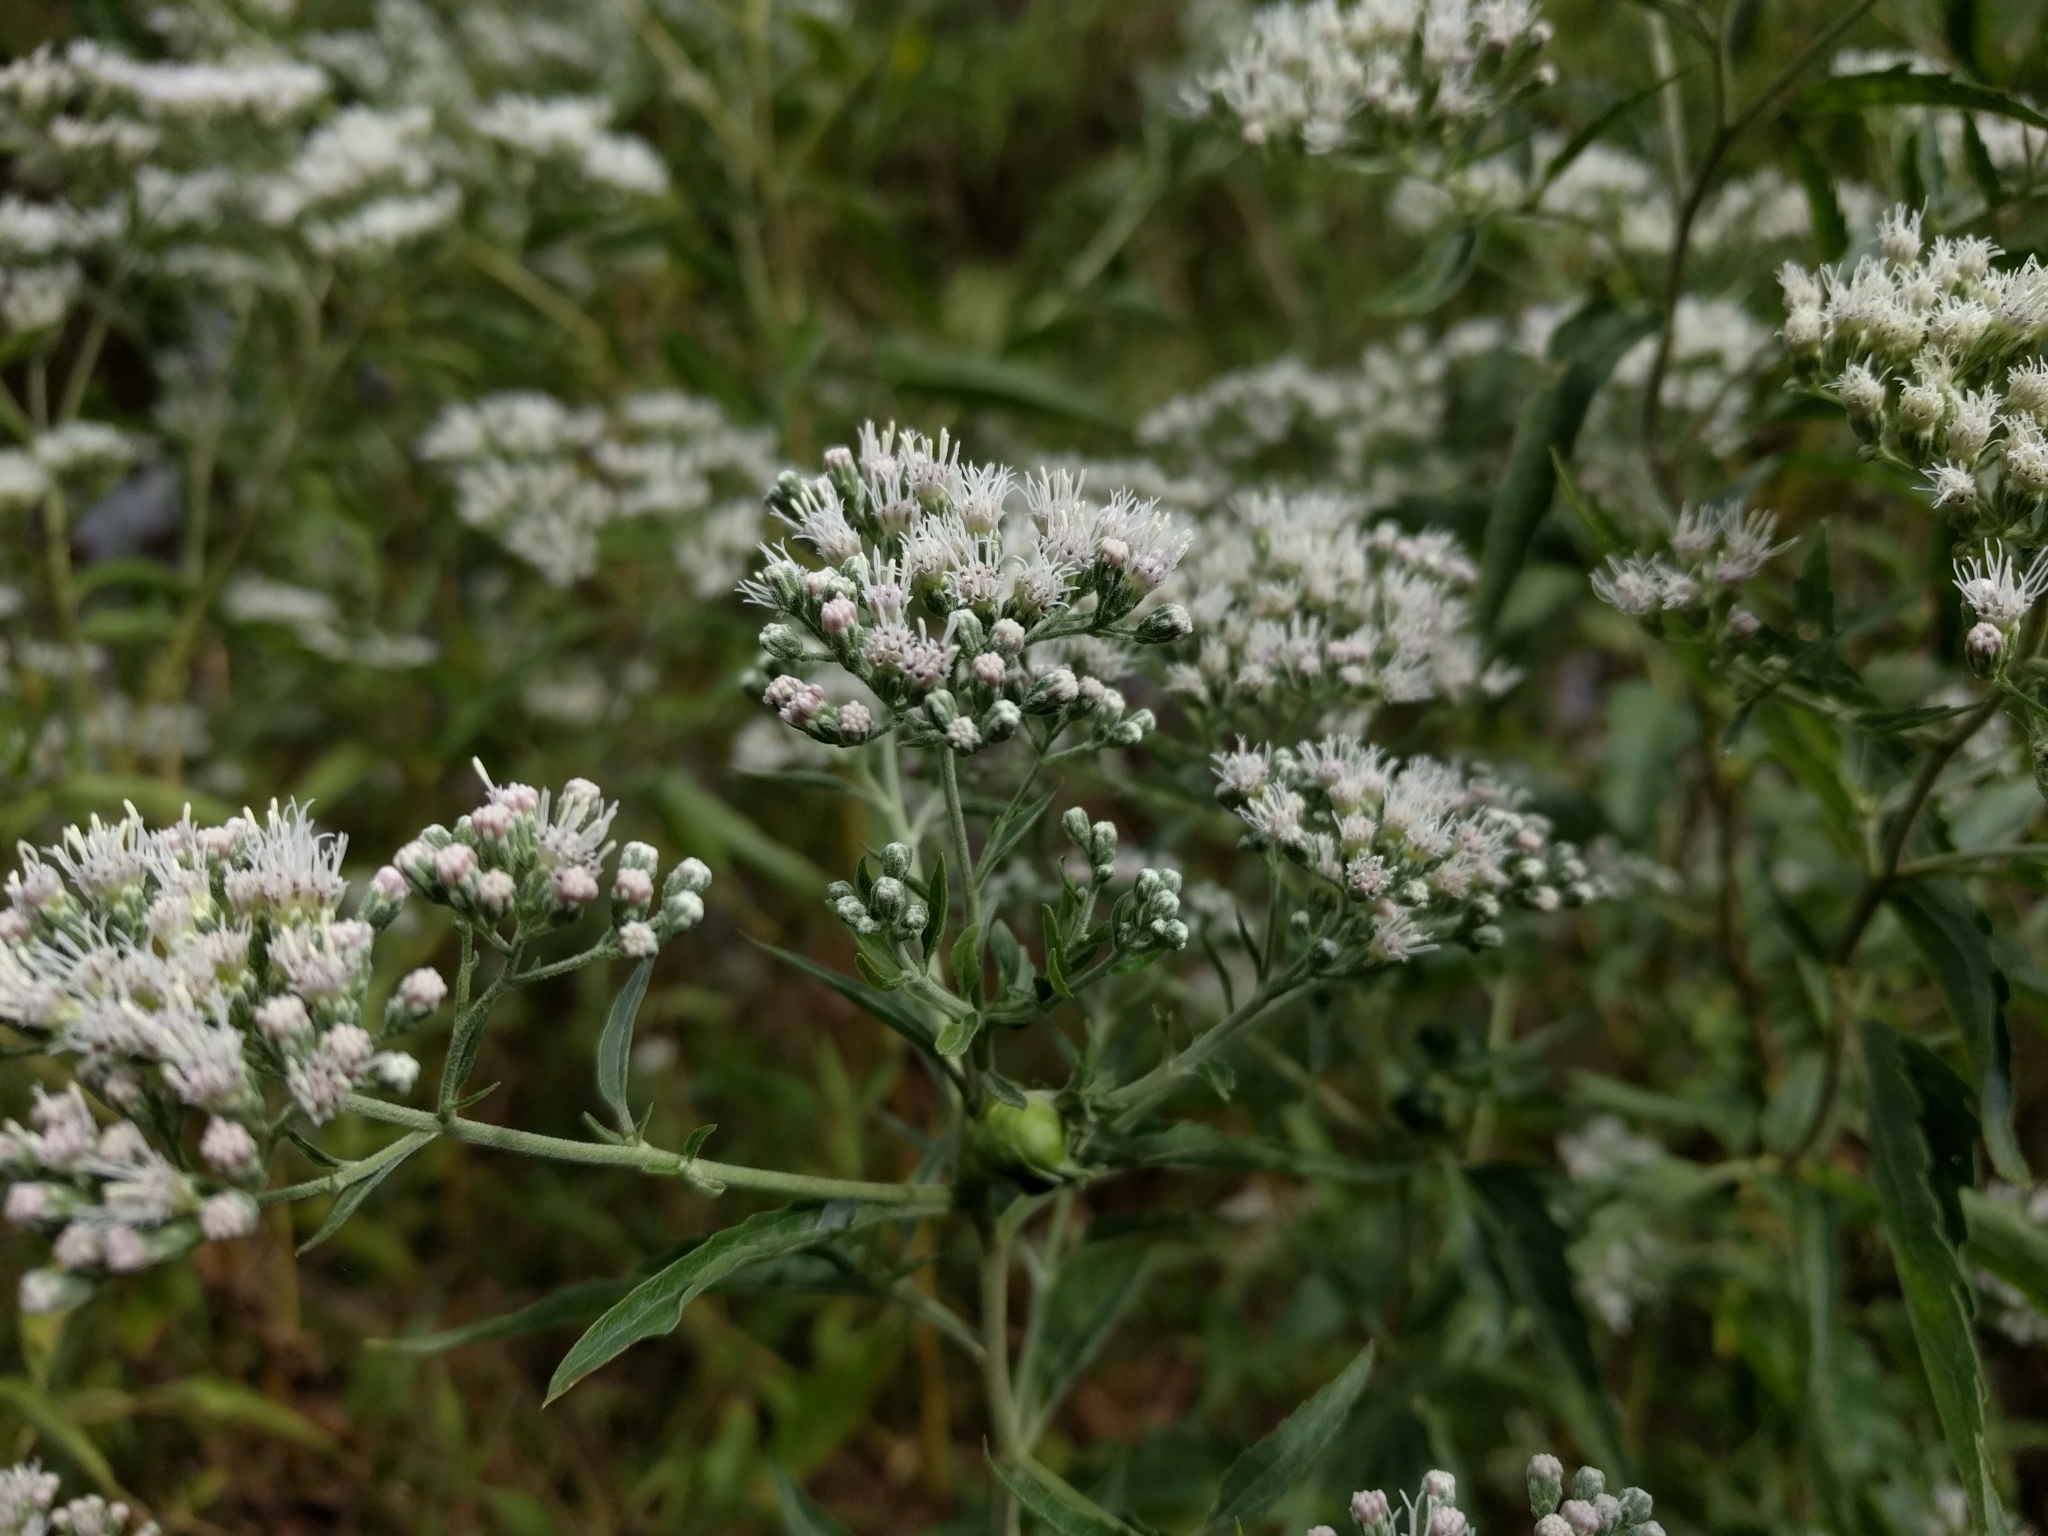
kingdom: Plantae
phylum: Tracheophyta
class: Magnoliopsida
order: Asterales
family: Asteraceae
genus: Eupatorium
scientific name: Eupatorium serotinum
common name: Late boneset
